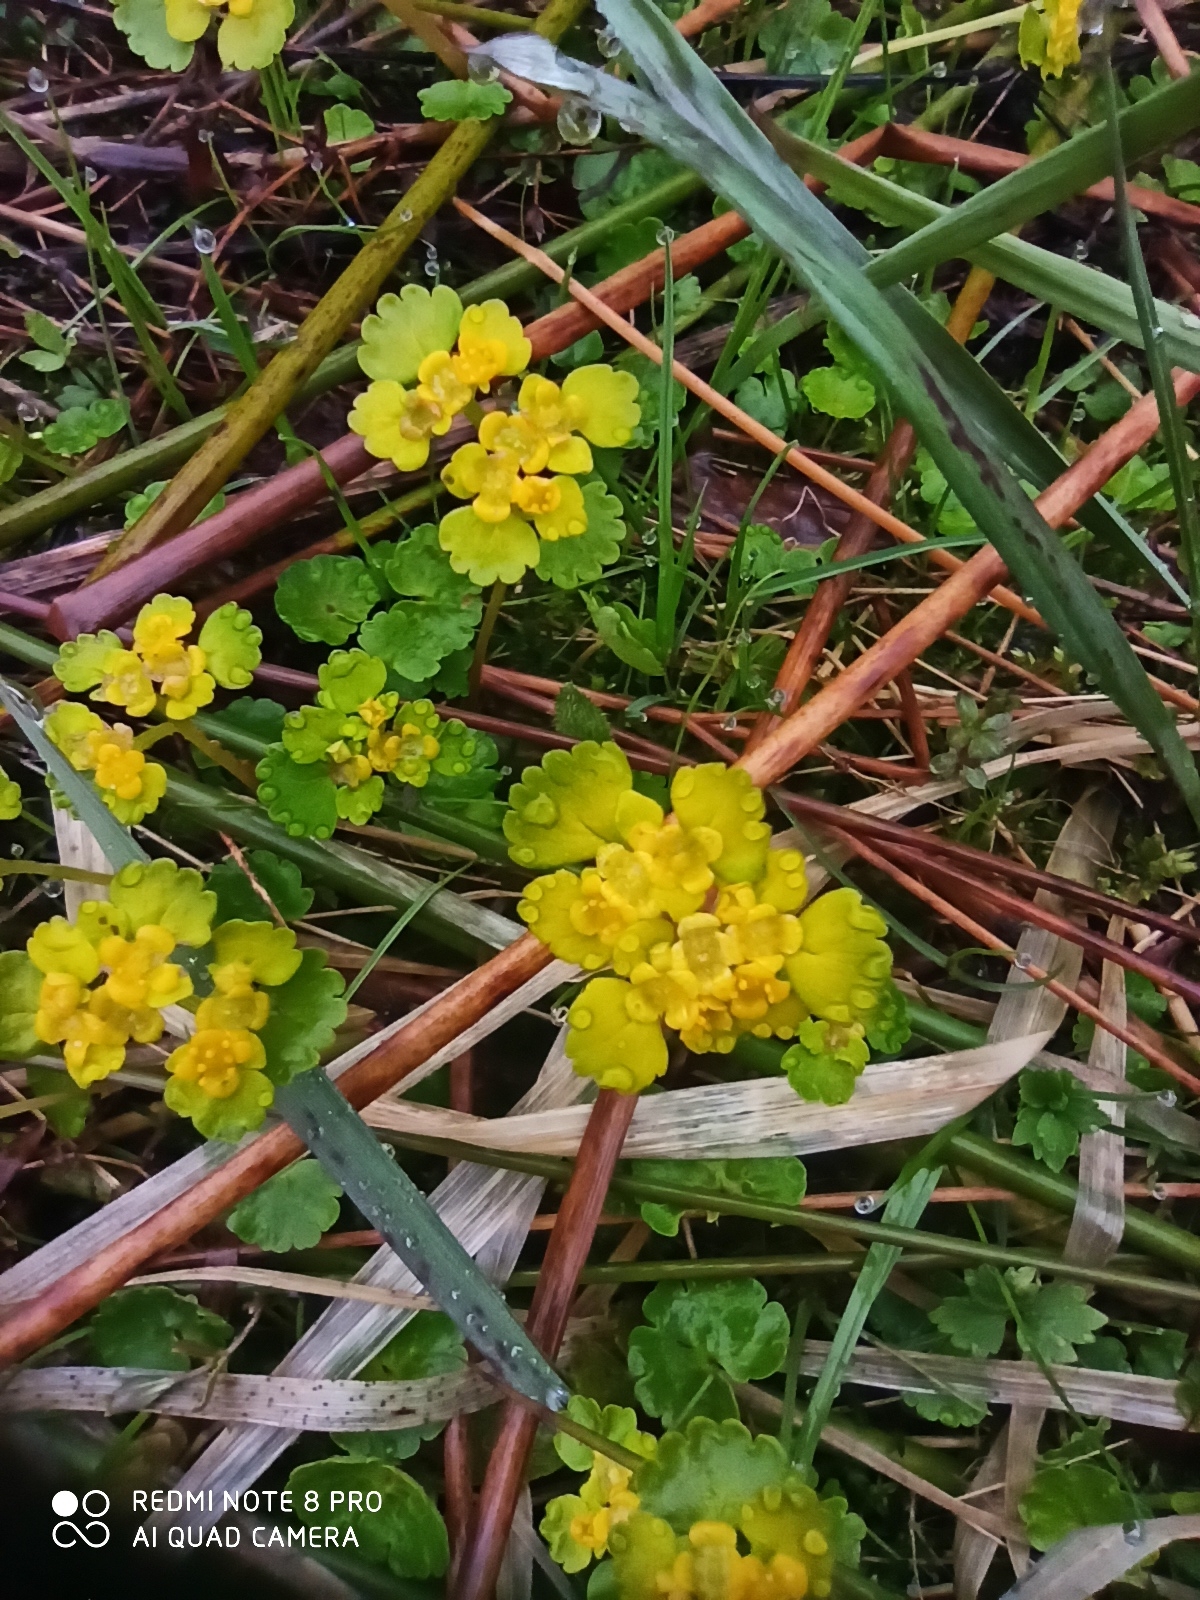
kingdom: Plantae
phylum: Tracheophyta
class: Magnoliopsida
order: Saxifragales
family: Saxifragaceae
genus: Chrysosplenium
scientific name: Chrysosplenium alternifolium
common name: Alternate-leaved golden-saxifrage
